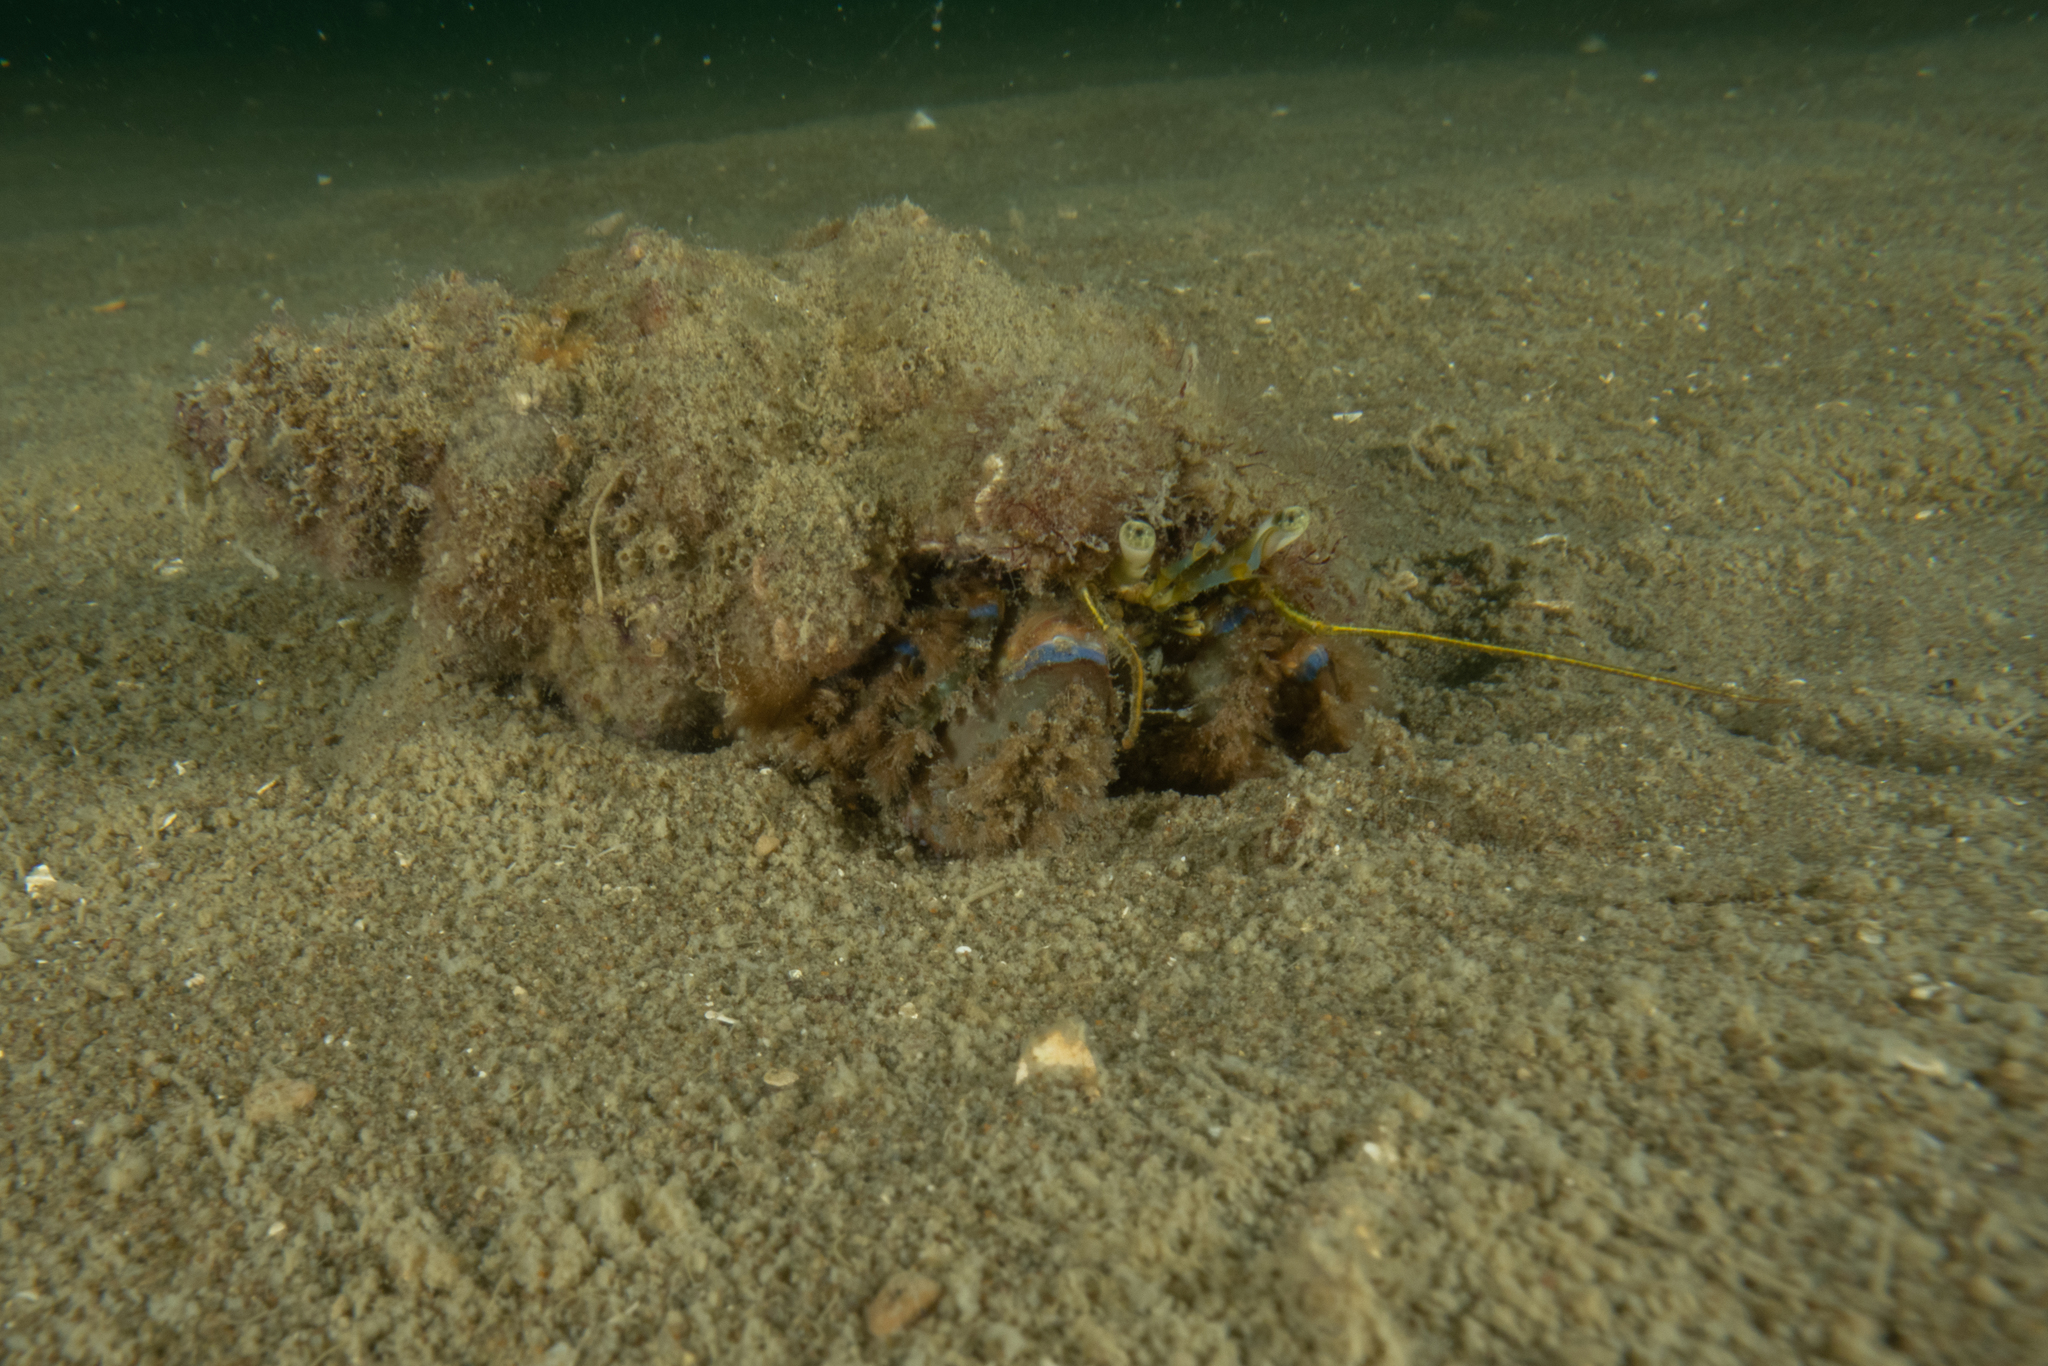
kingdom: Animalia
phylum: Arthropoda
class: Malacostraca
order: Decapoda
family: Paguridae
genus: Pagurus
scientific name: Pagurus novizealandiae
